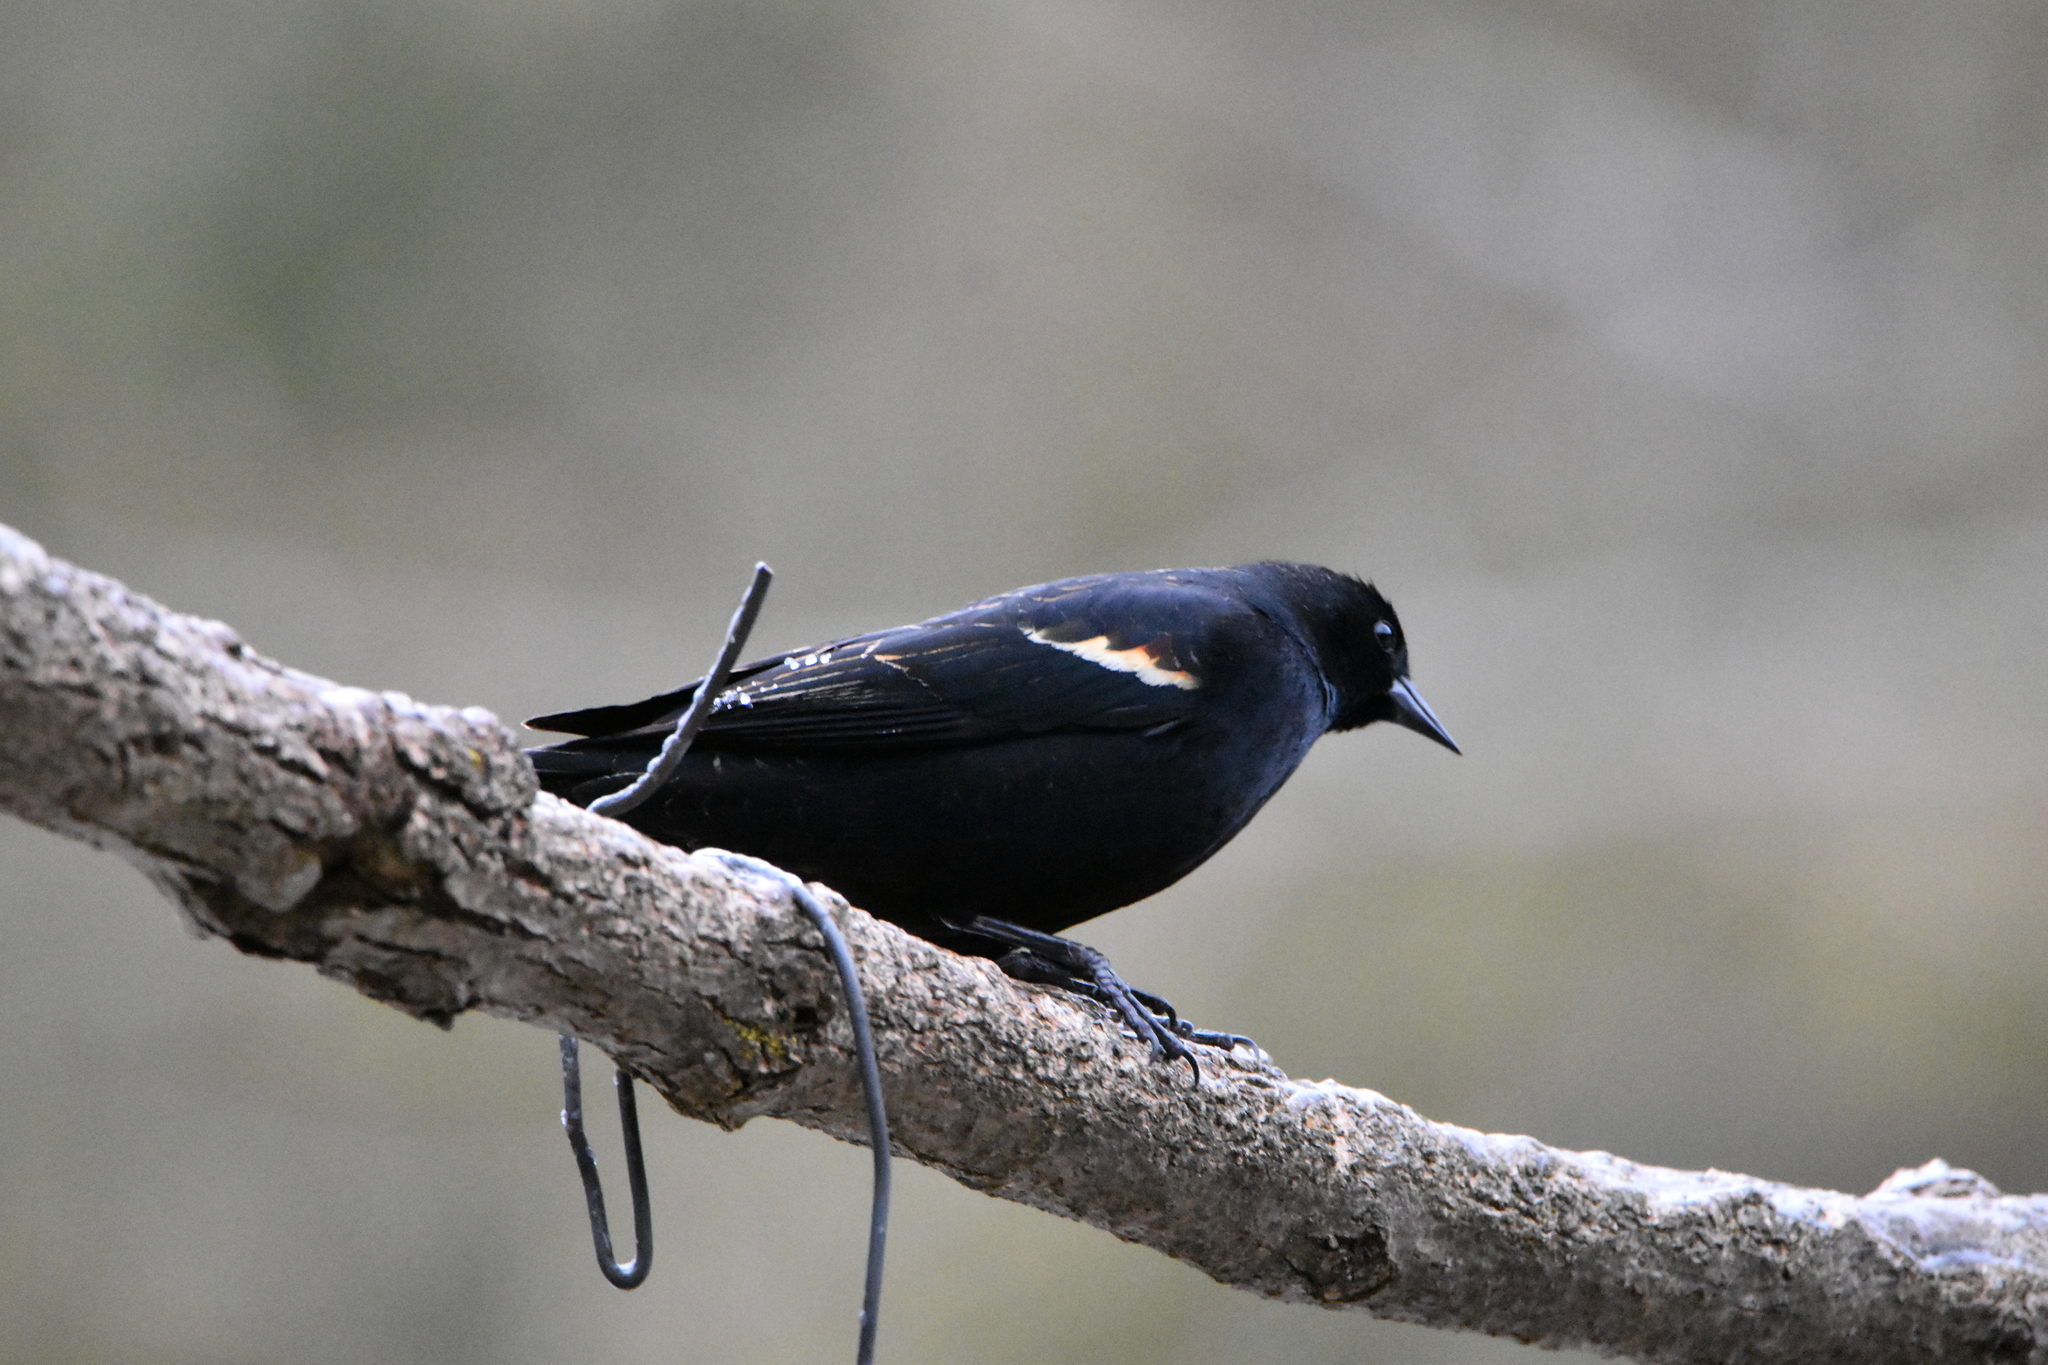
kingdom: Animalia
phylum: Chordata
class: Aves
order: Passeriformes
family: Icteridae
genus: Agelaius
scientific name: Agelaius phoeniceus
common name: Red-winged blackbird
